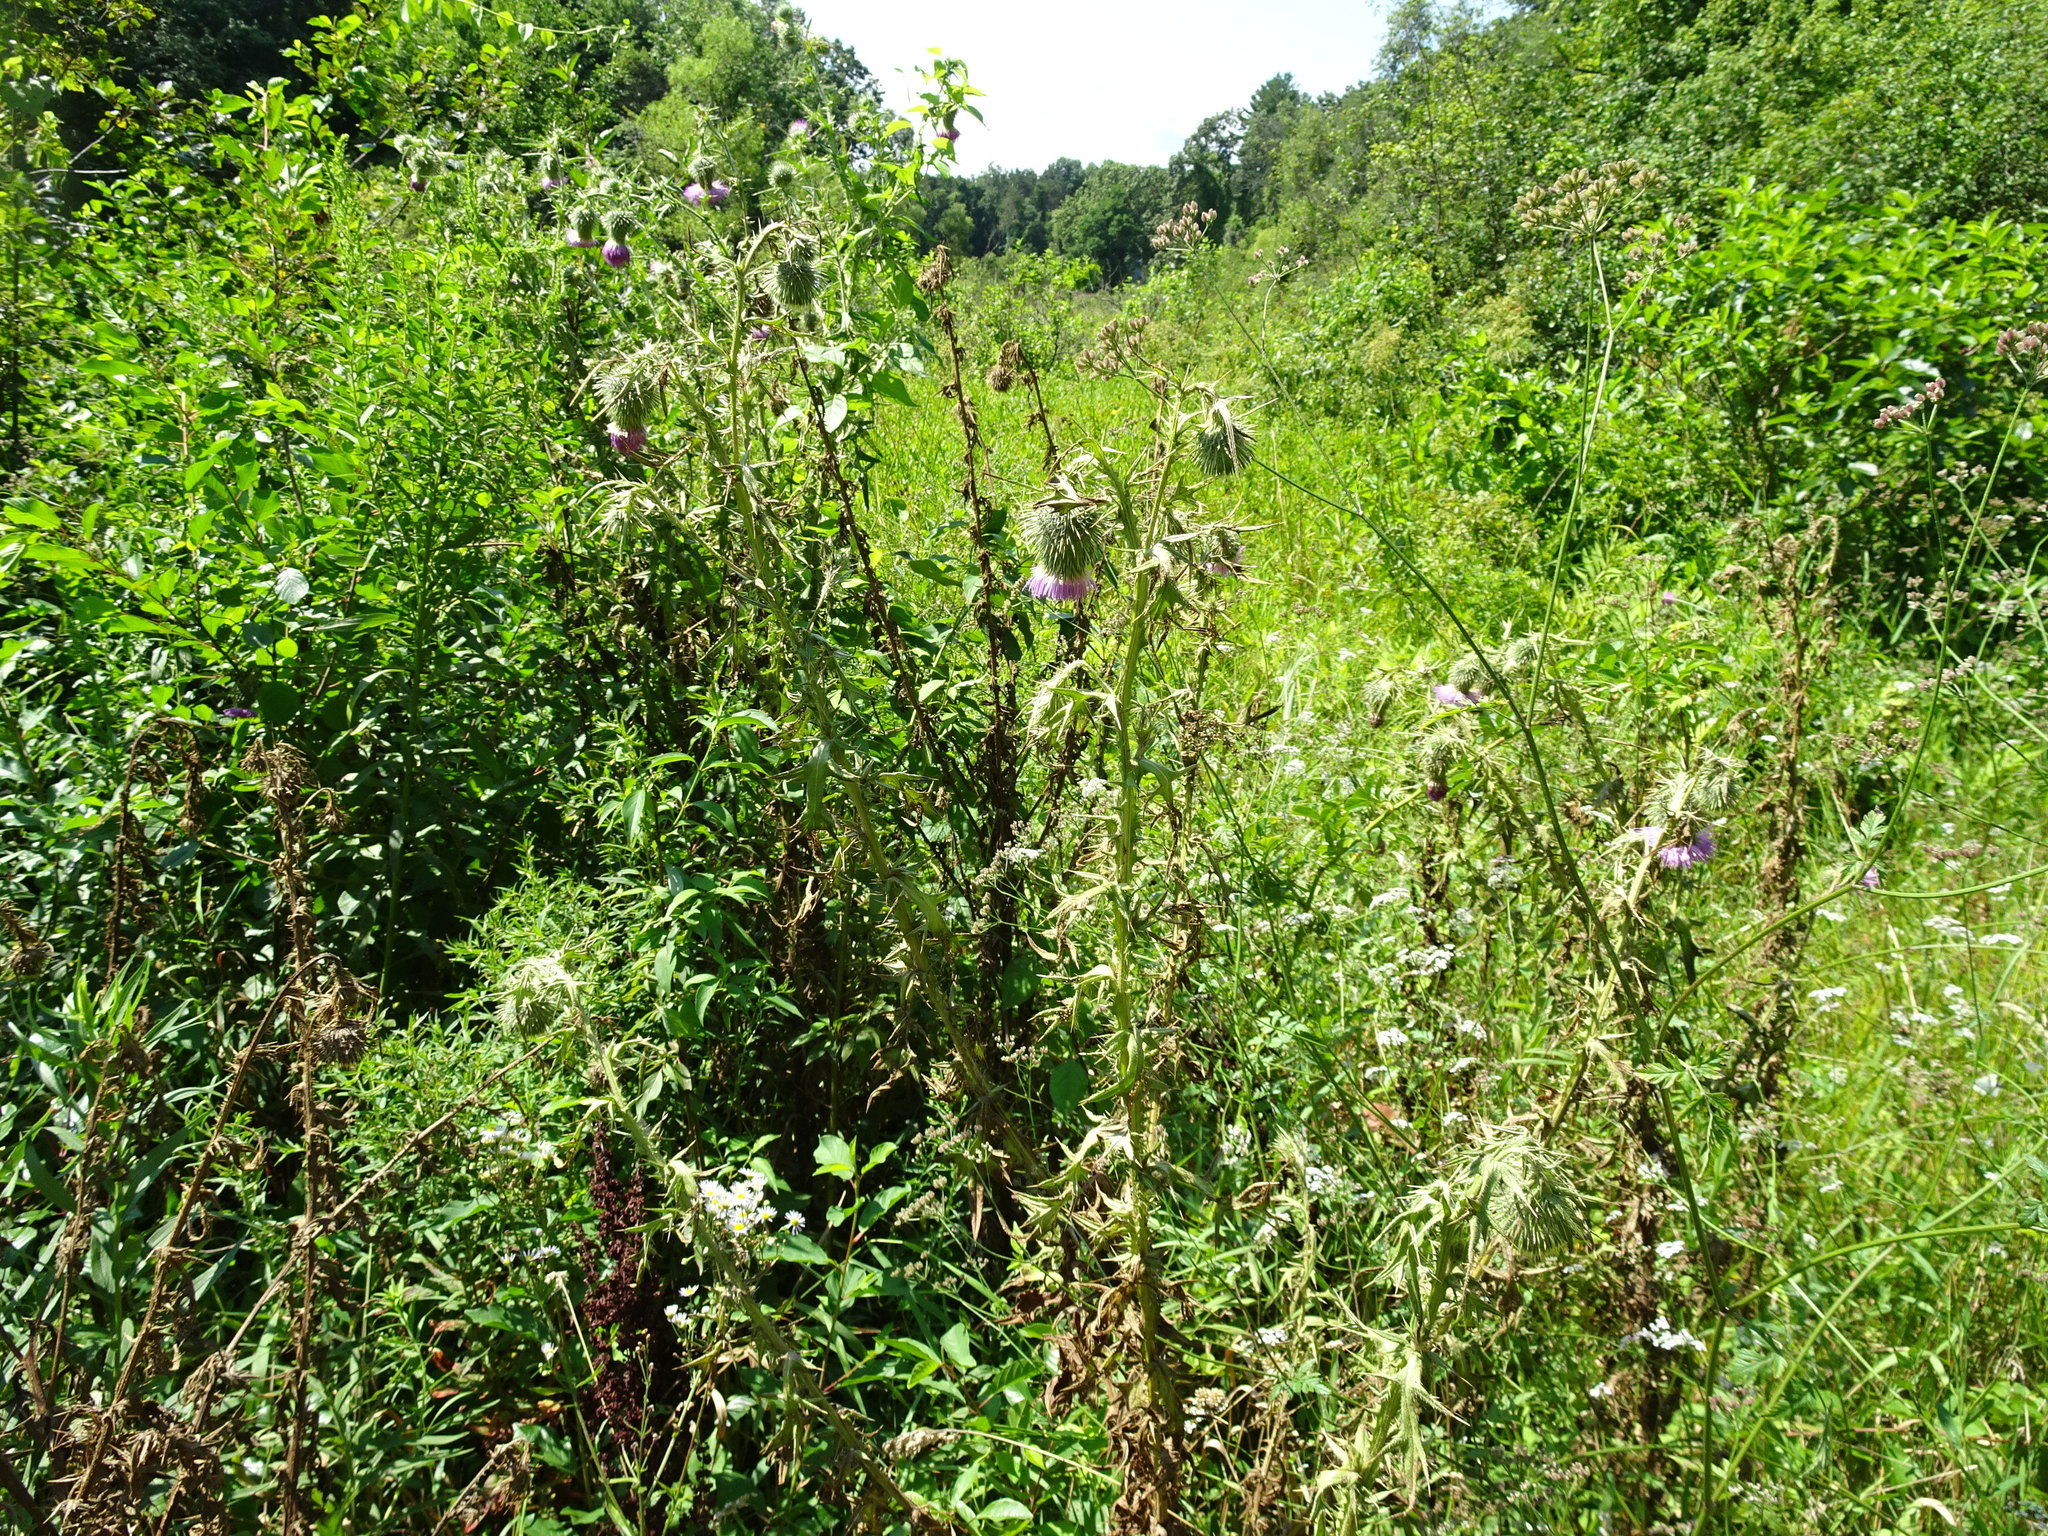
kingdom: Plantae
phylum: Tracheophyta
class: Magnoliopsida
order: Asterales
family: Asteraceae
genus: Cirsium
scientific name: Cirsium vulgare
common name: Bull thistle
